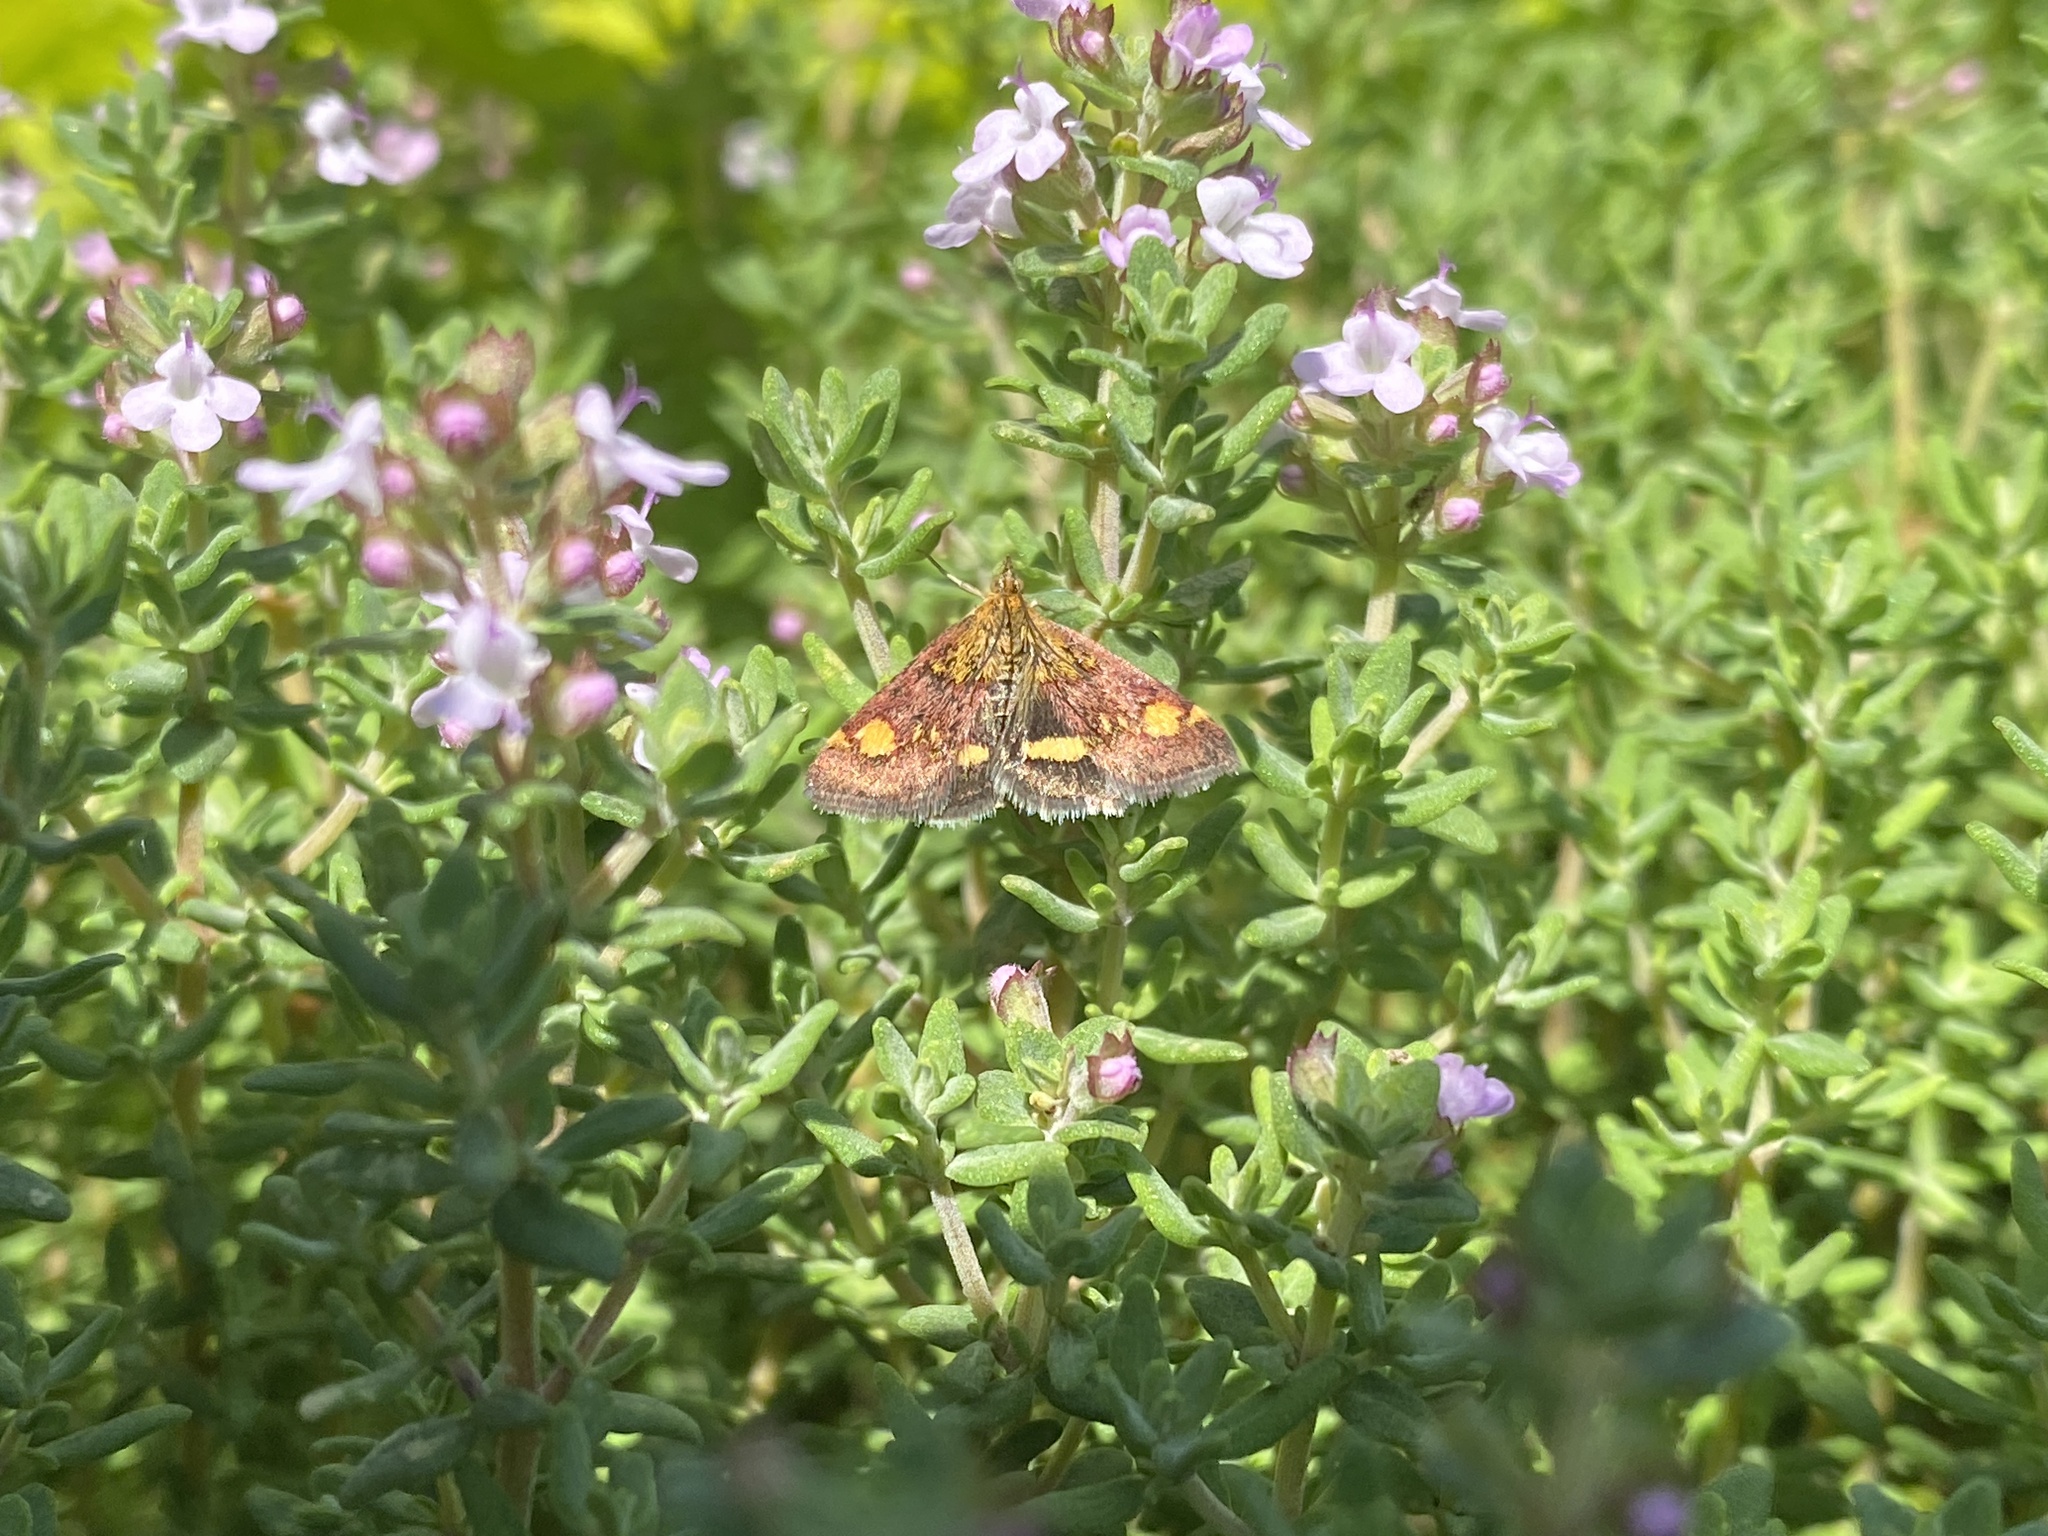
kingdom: Animalia
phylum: Arthropoda
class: Insecta
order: Lepidoptera
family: Crambidae
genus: Pyrausta
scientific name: Pyrausta aurata
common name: Small purple & gold
